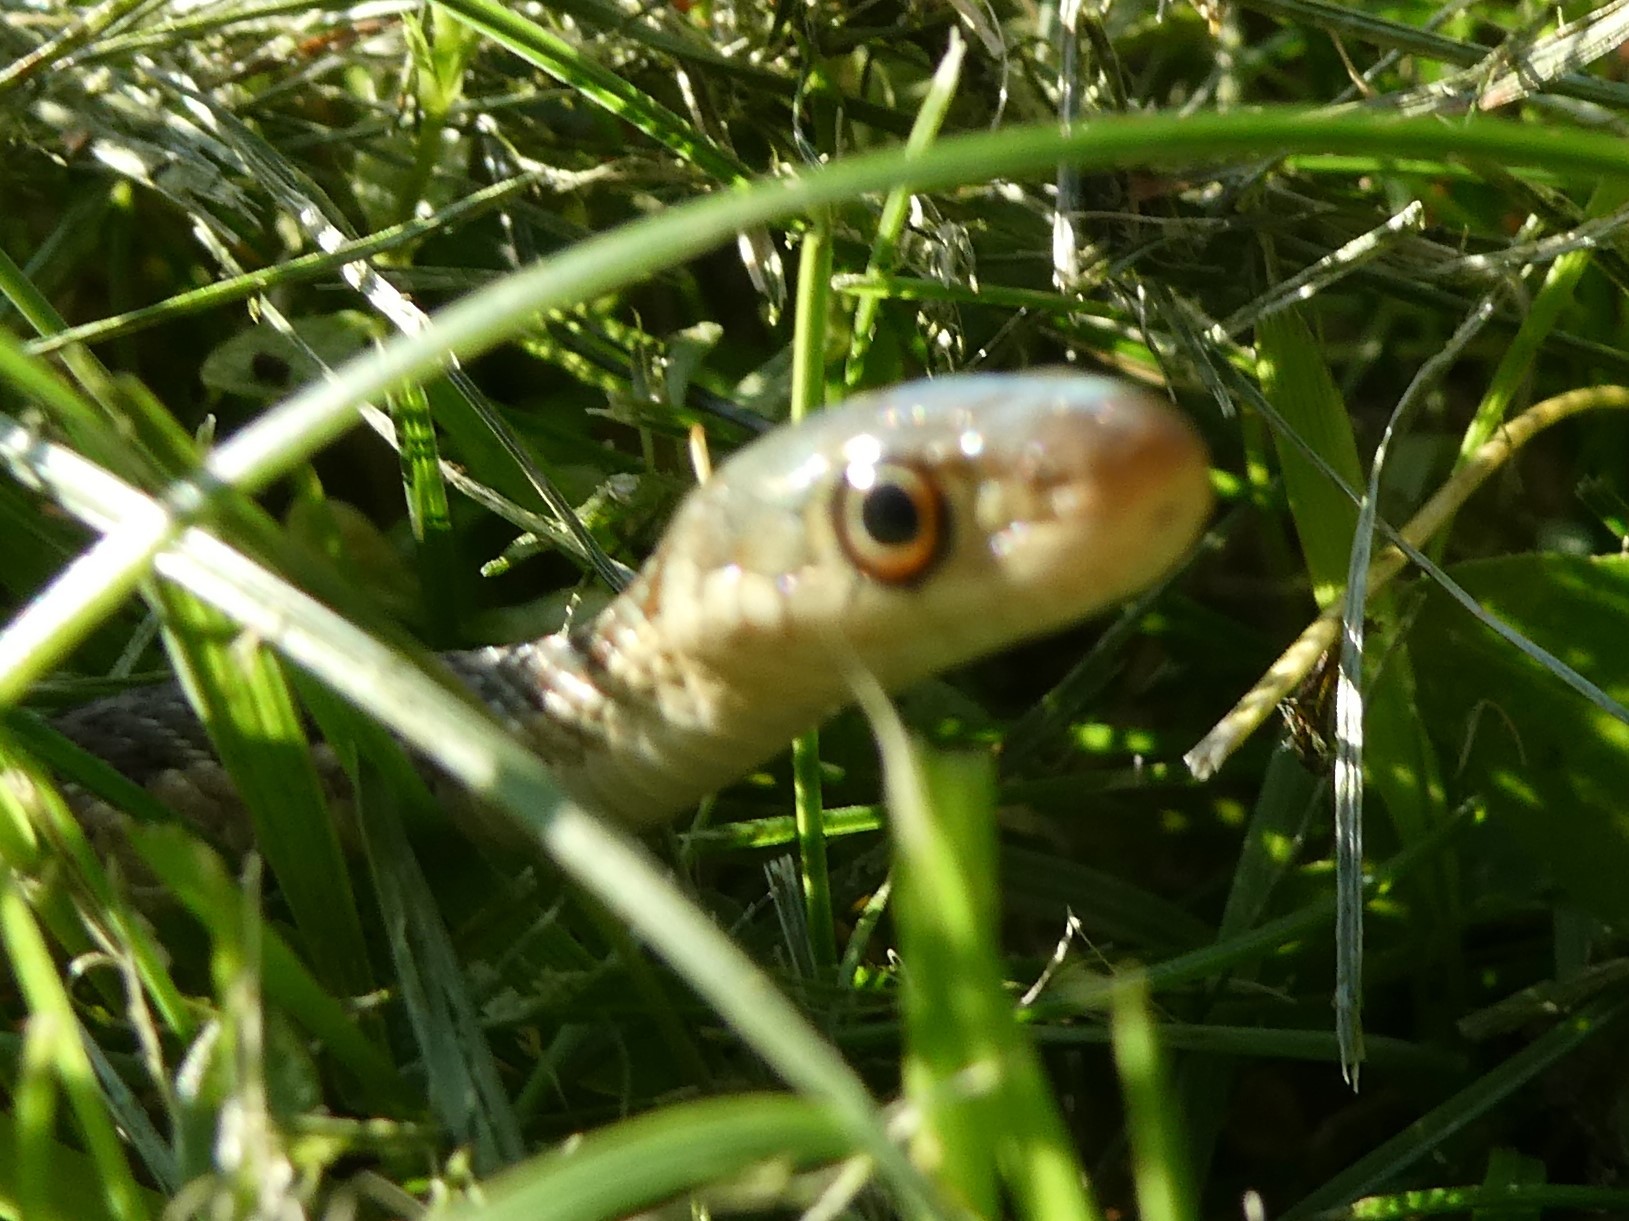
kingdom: Animalia
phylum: Chordata
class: Squamata
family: Colubridae
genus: Thamnophis
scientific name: Thamnophis sirtalis
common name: Common garter snake
